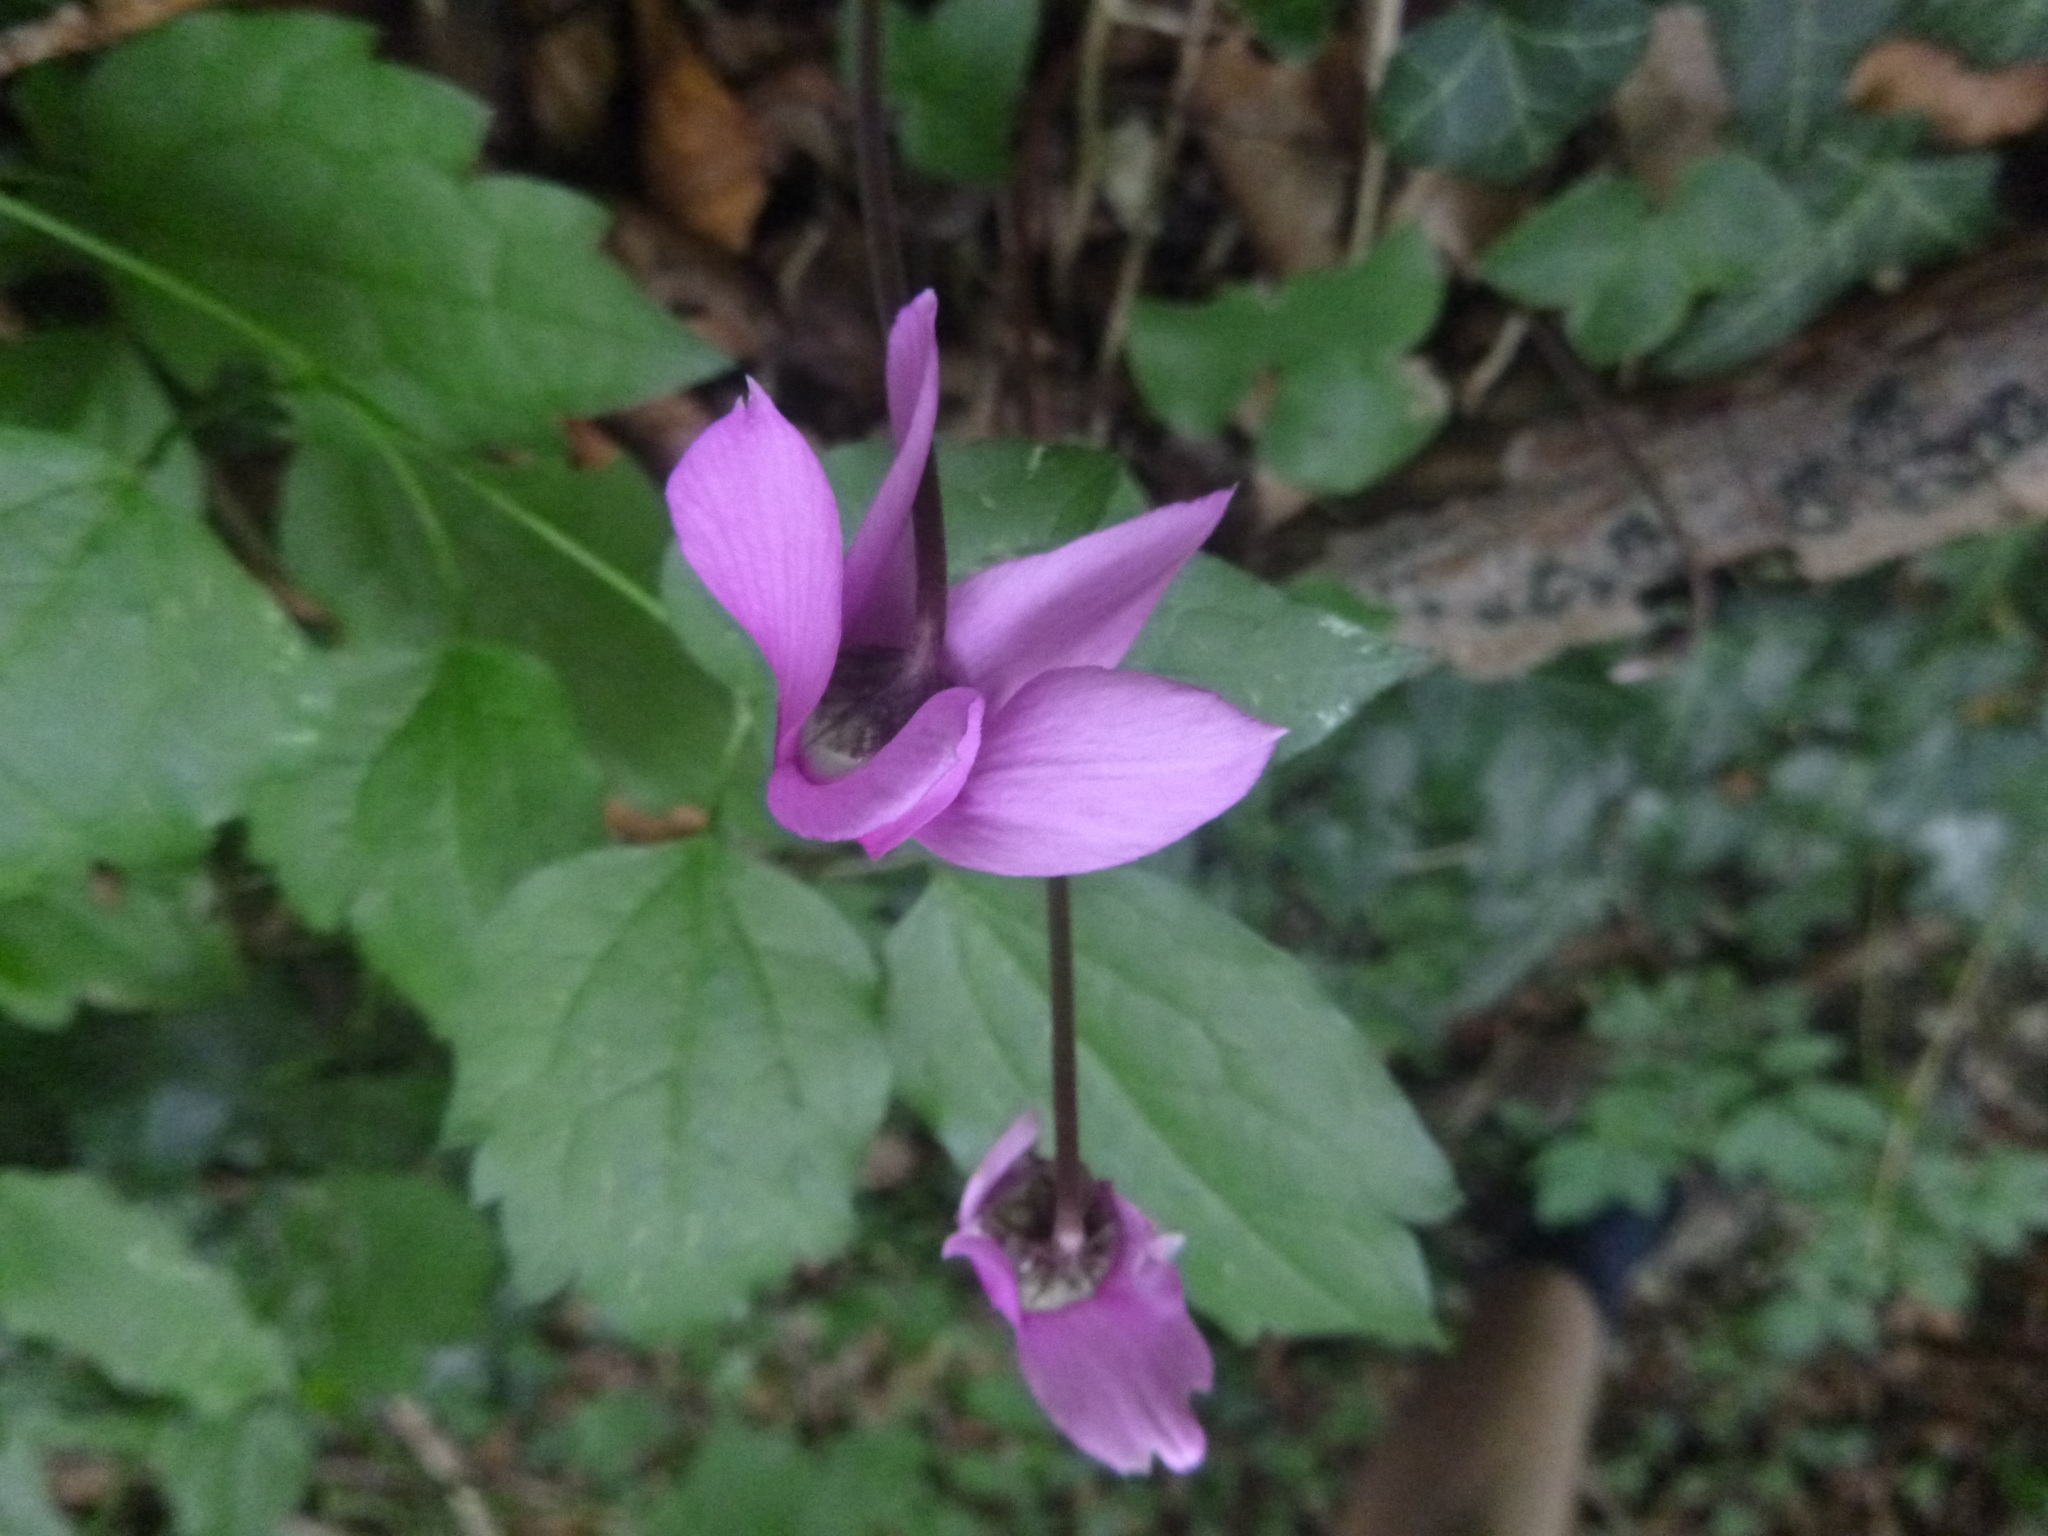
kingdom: Plantae
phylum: Tracheophyta
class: Magnoliopsida
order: Ericales
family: Primulaceae
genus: Cyclamen
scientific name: Cyclamen purpurascens
